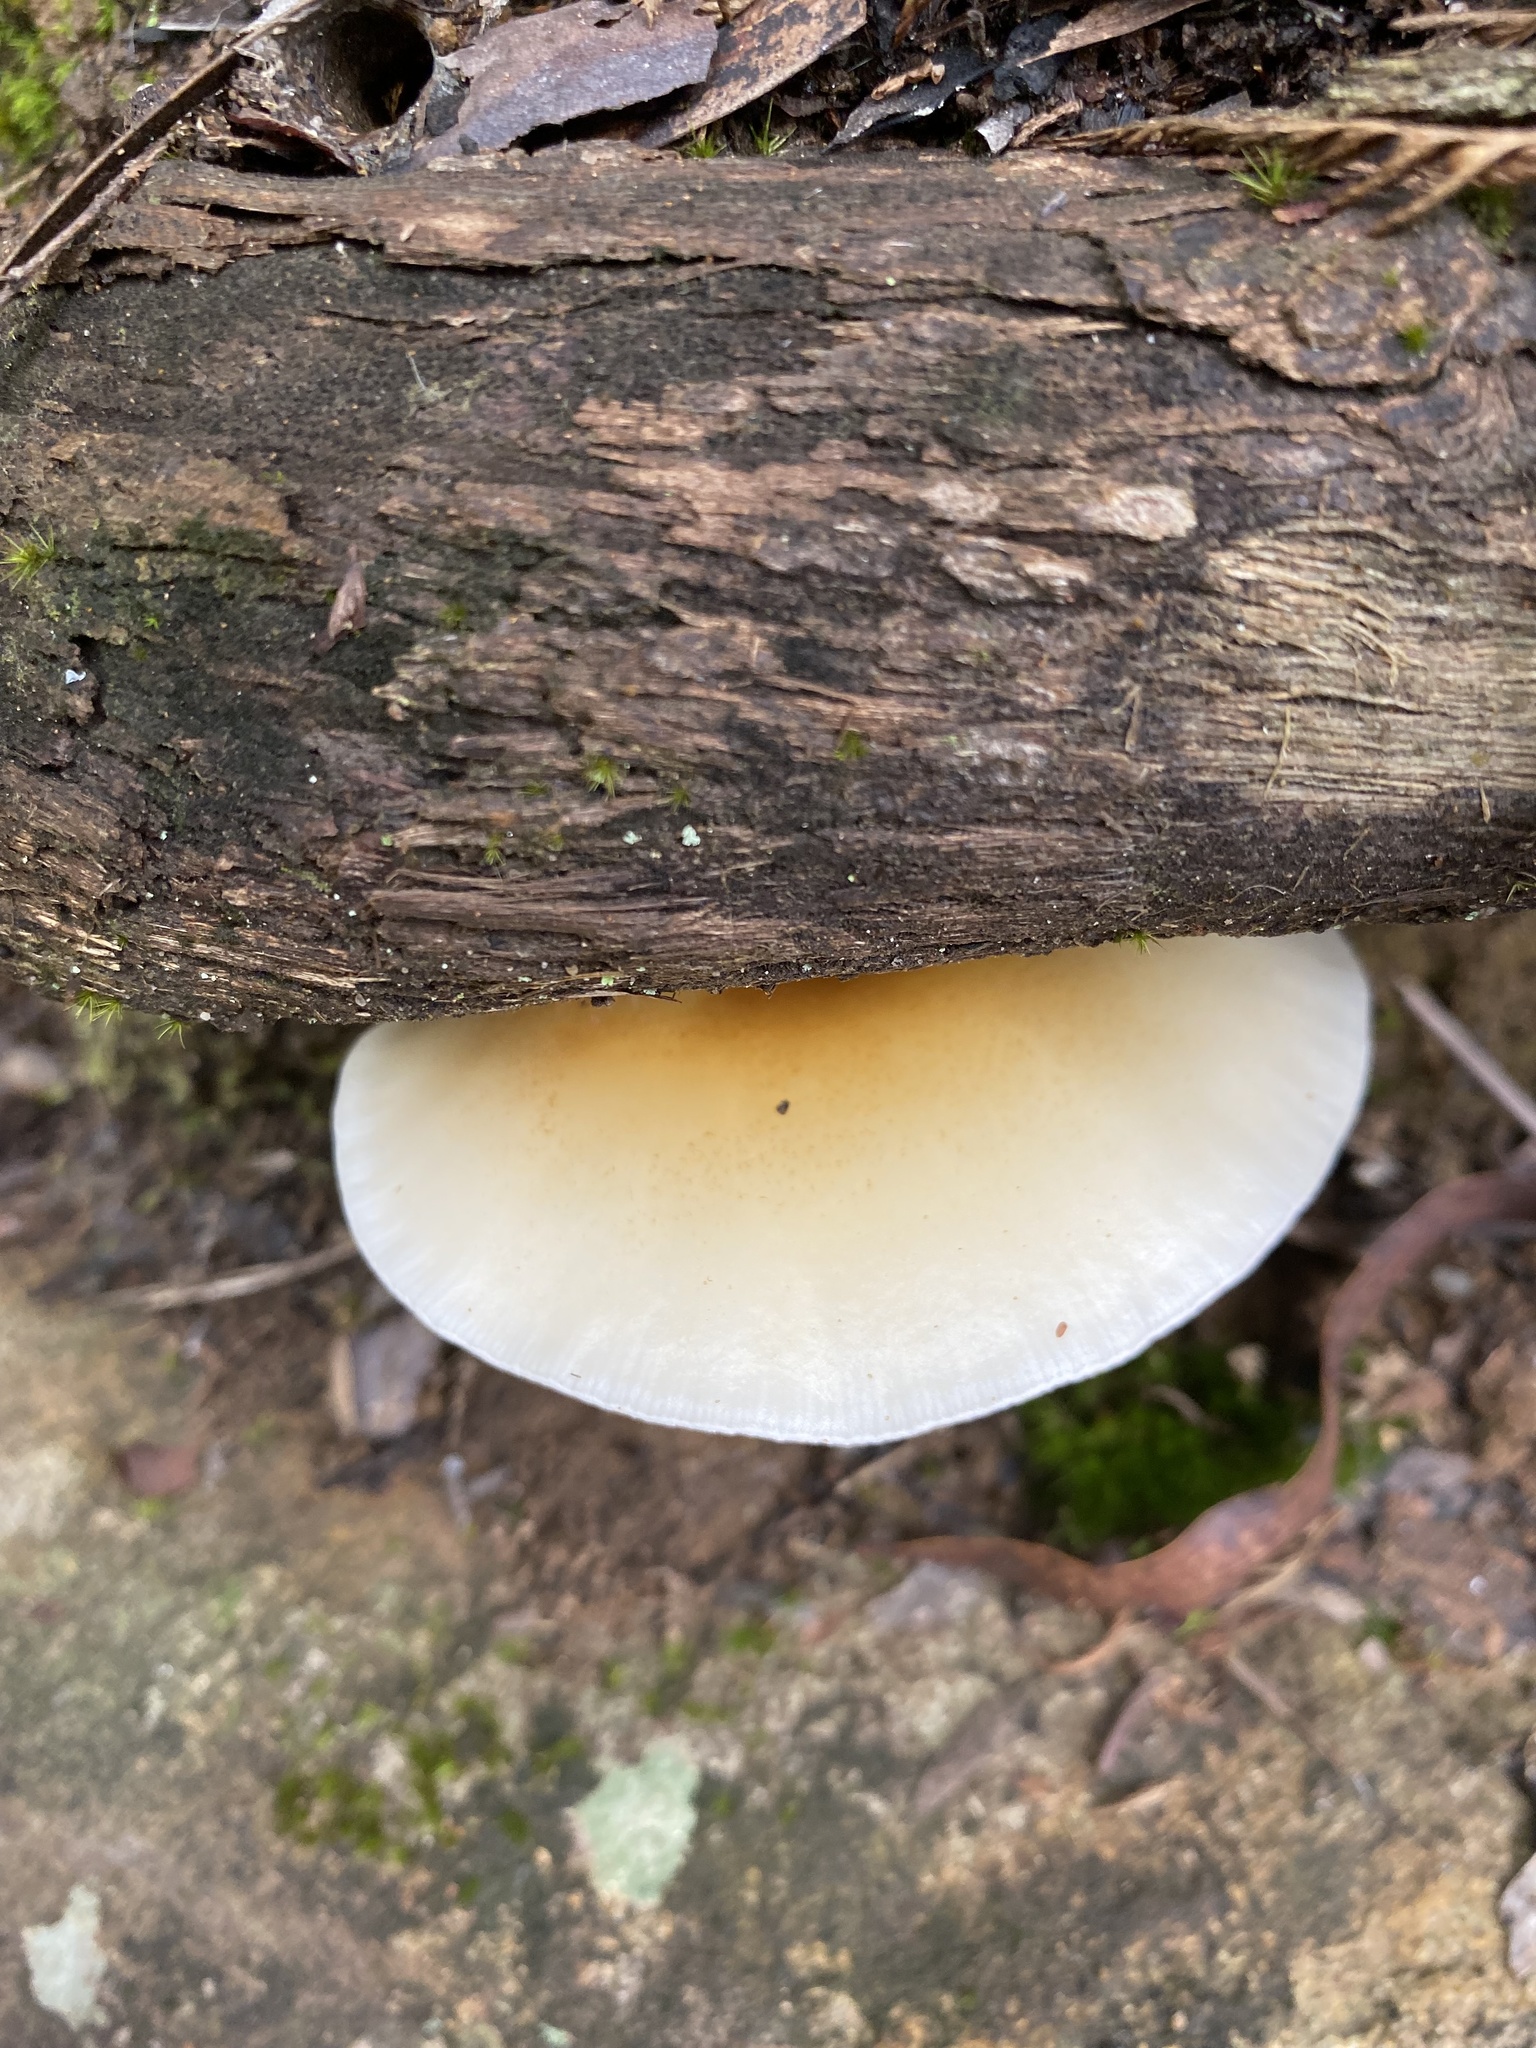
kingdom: Fungi
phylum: Basidiomycota
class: Agaricomycetes
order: Agaricales
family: Omphalotaceae
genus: Omphalotus
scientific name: Omphalotus nidiformis
